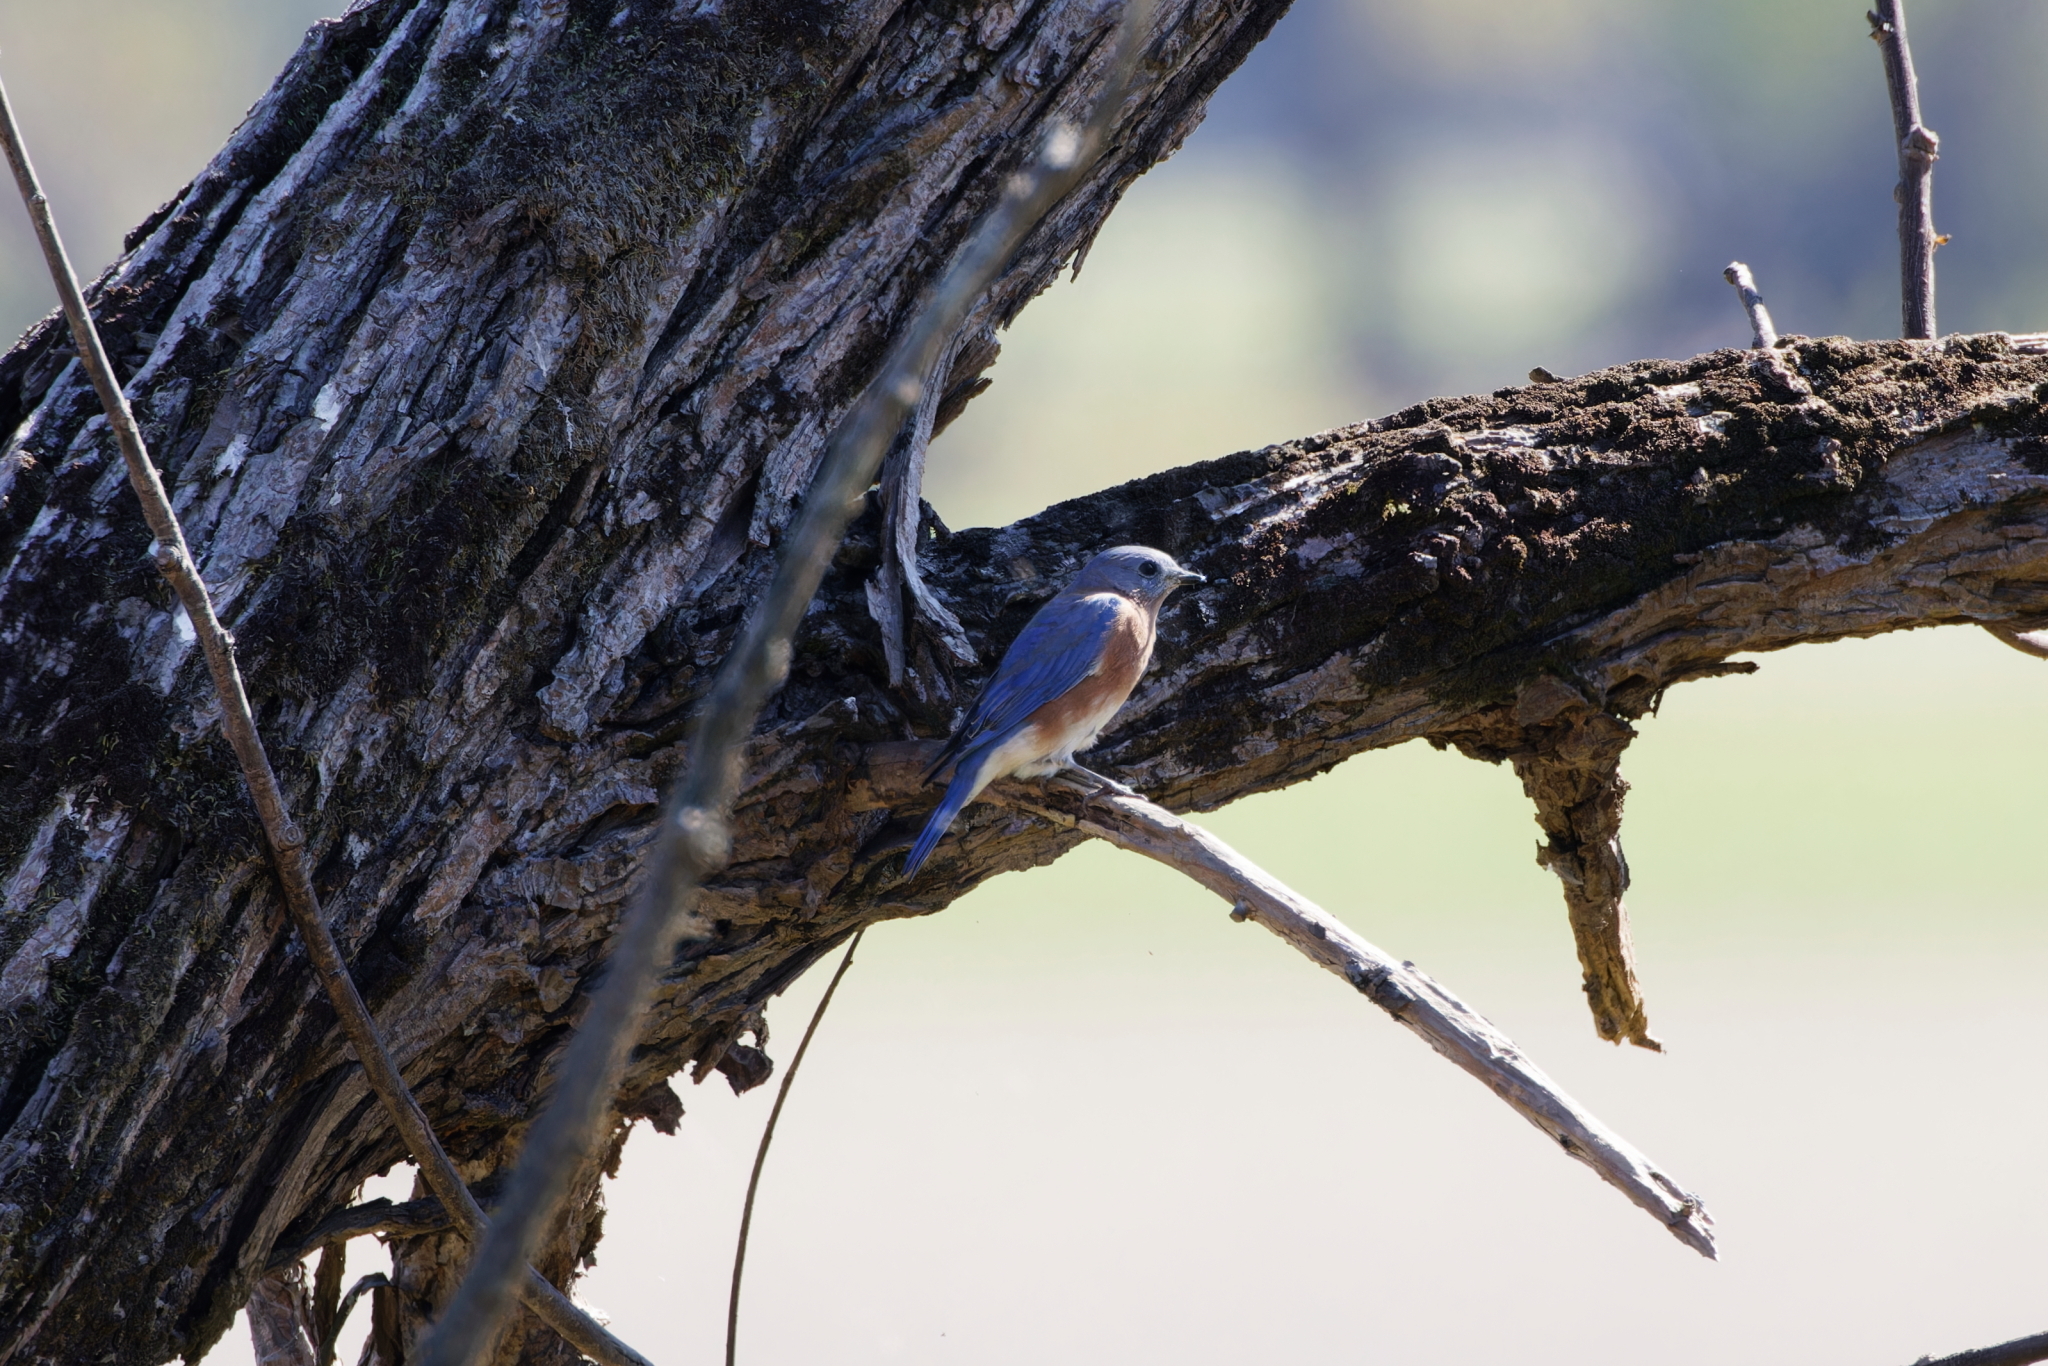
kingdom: Animalia
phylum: Chordata
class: Aves
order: Passeriformes
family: Turdidae
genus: Sialia
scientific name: Sialia sialis
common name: Eastern bluebird
